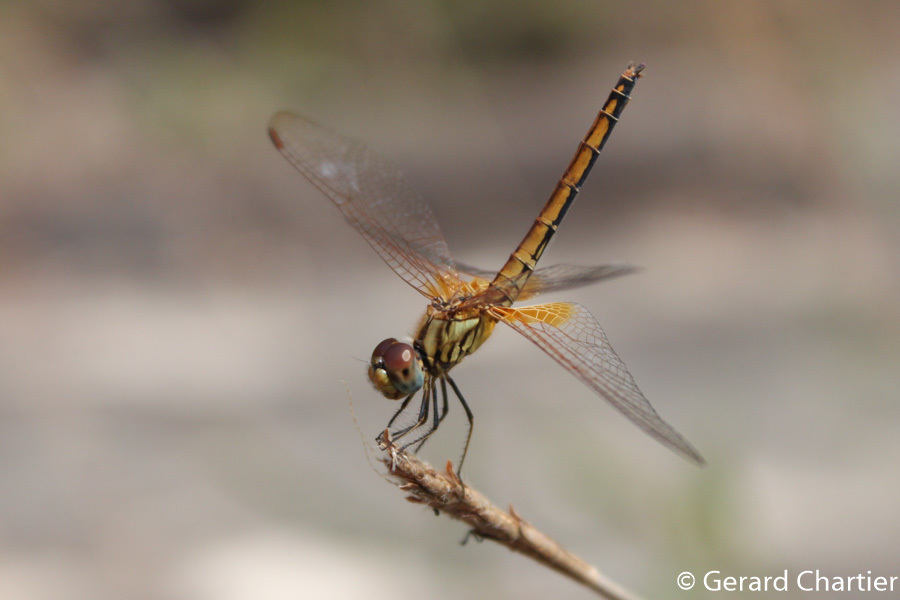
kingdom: Animalia
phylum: Arthropoda
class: Insecta
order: Odonata
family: Libellulidae
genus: Trithemis
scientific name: Trithemis aurora
